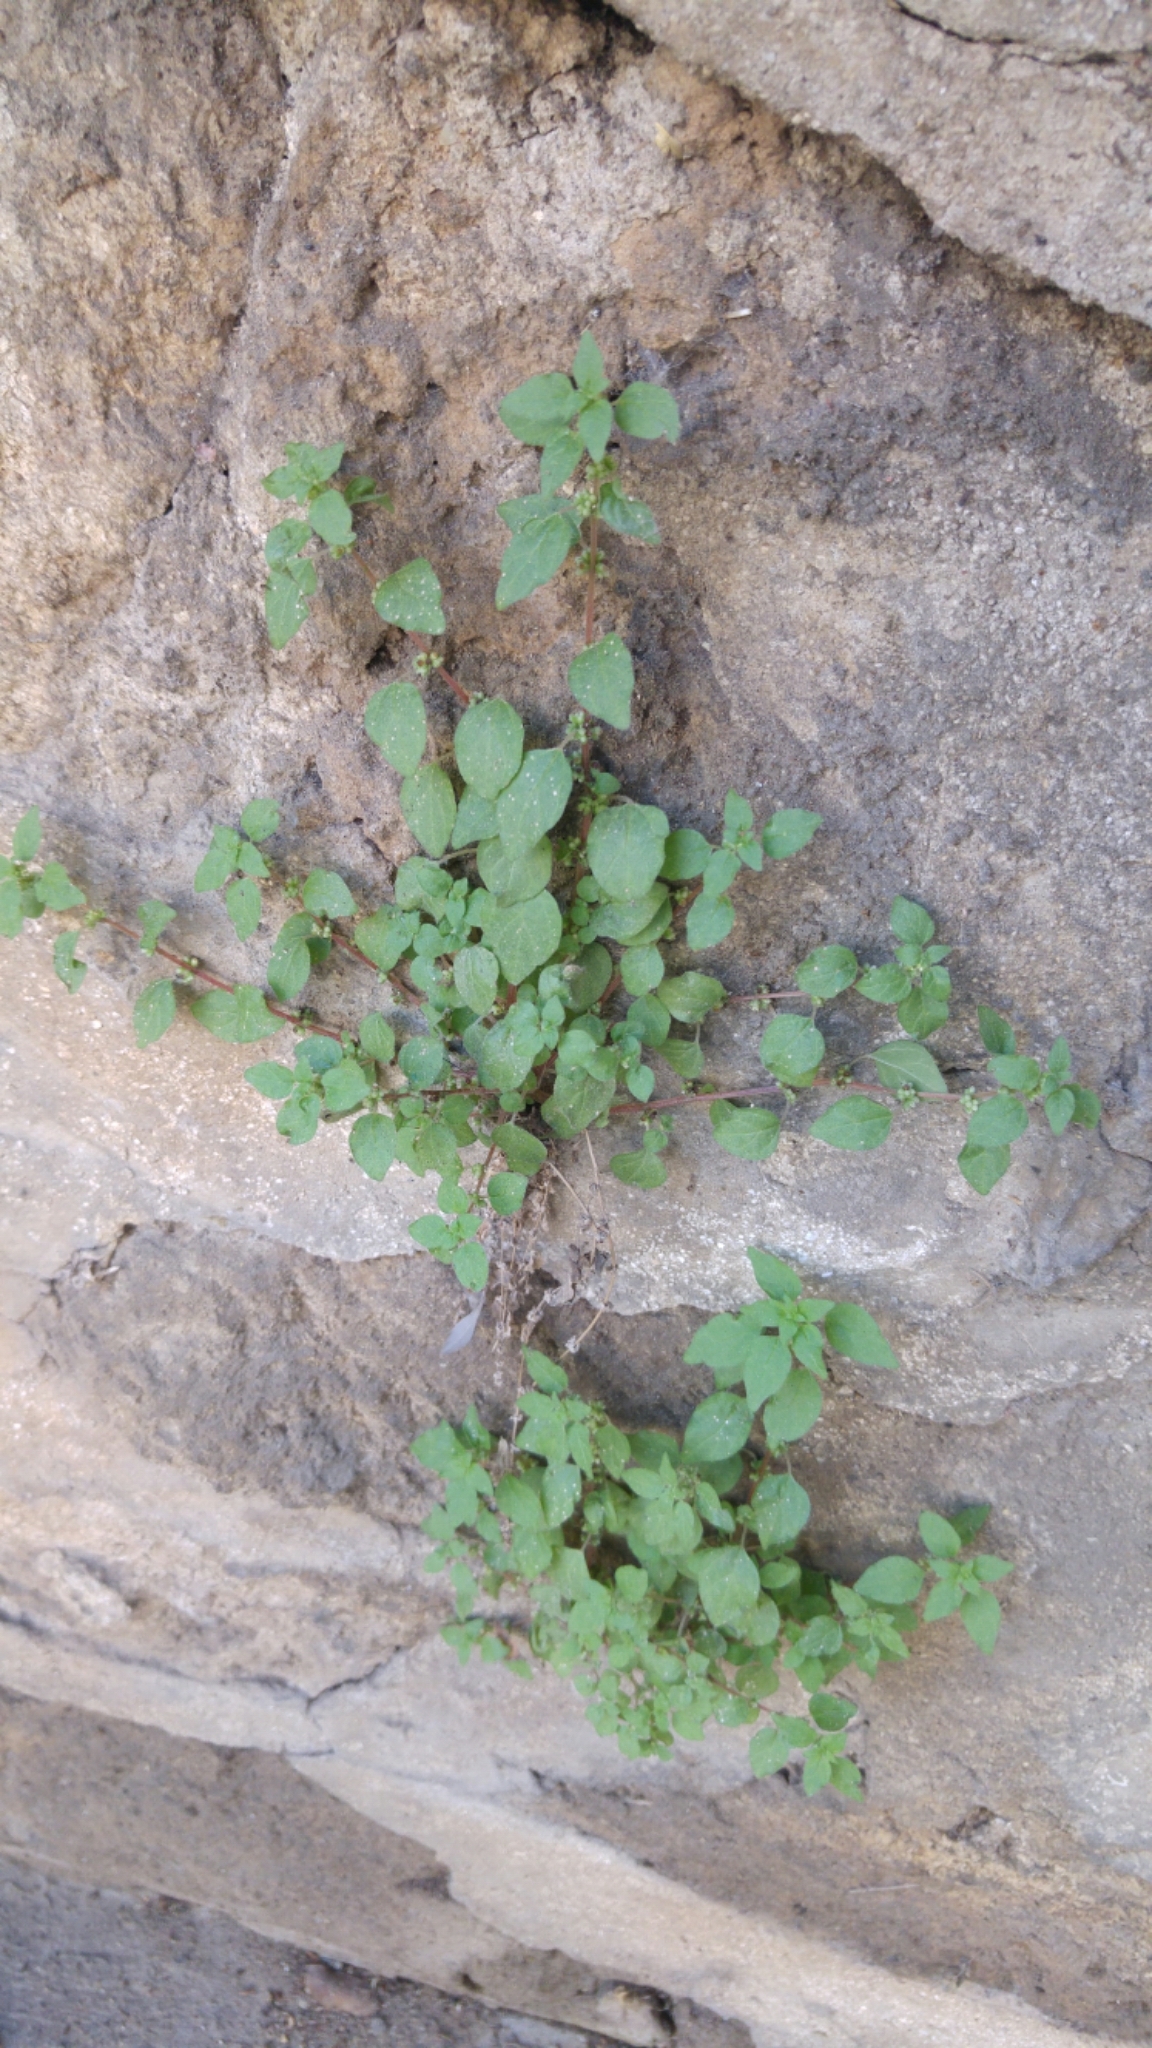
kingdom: Plantae
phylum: Tracheophyta
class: Magnoliopsida
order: Rosales
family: Urticaceae
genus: Parietaria
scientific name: Parietaria judaica
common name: Pellitory-of-the-wall
